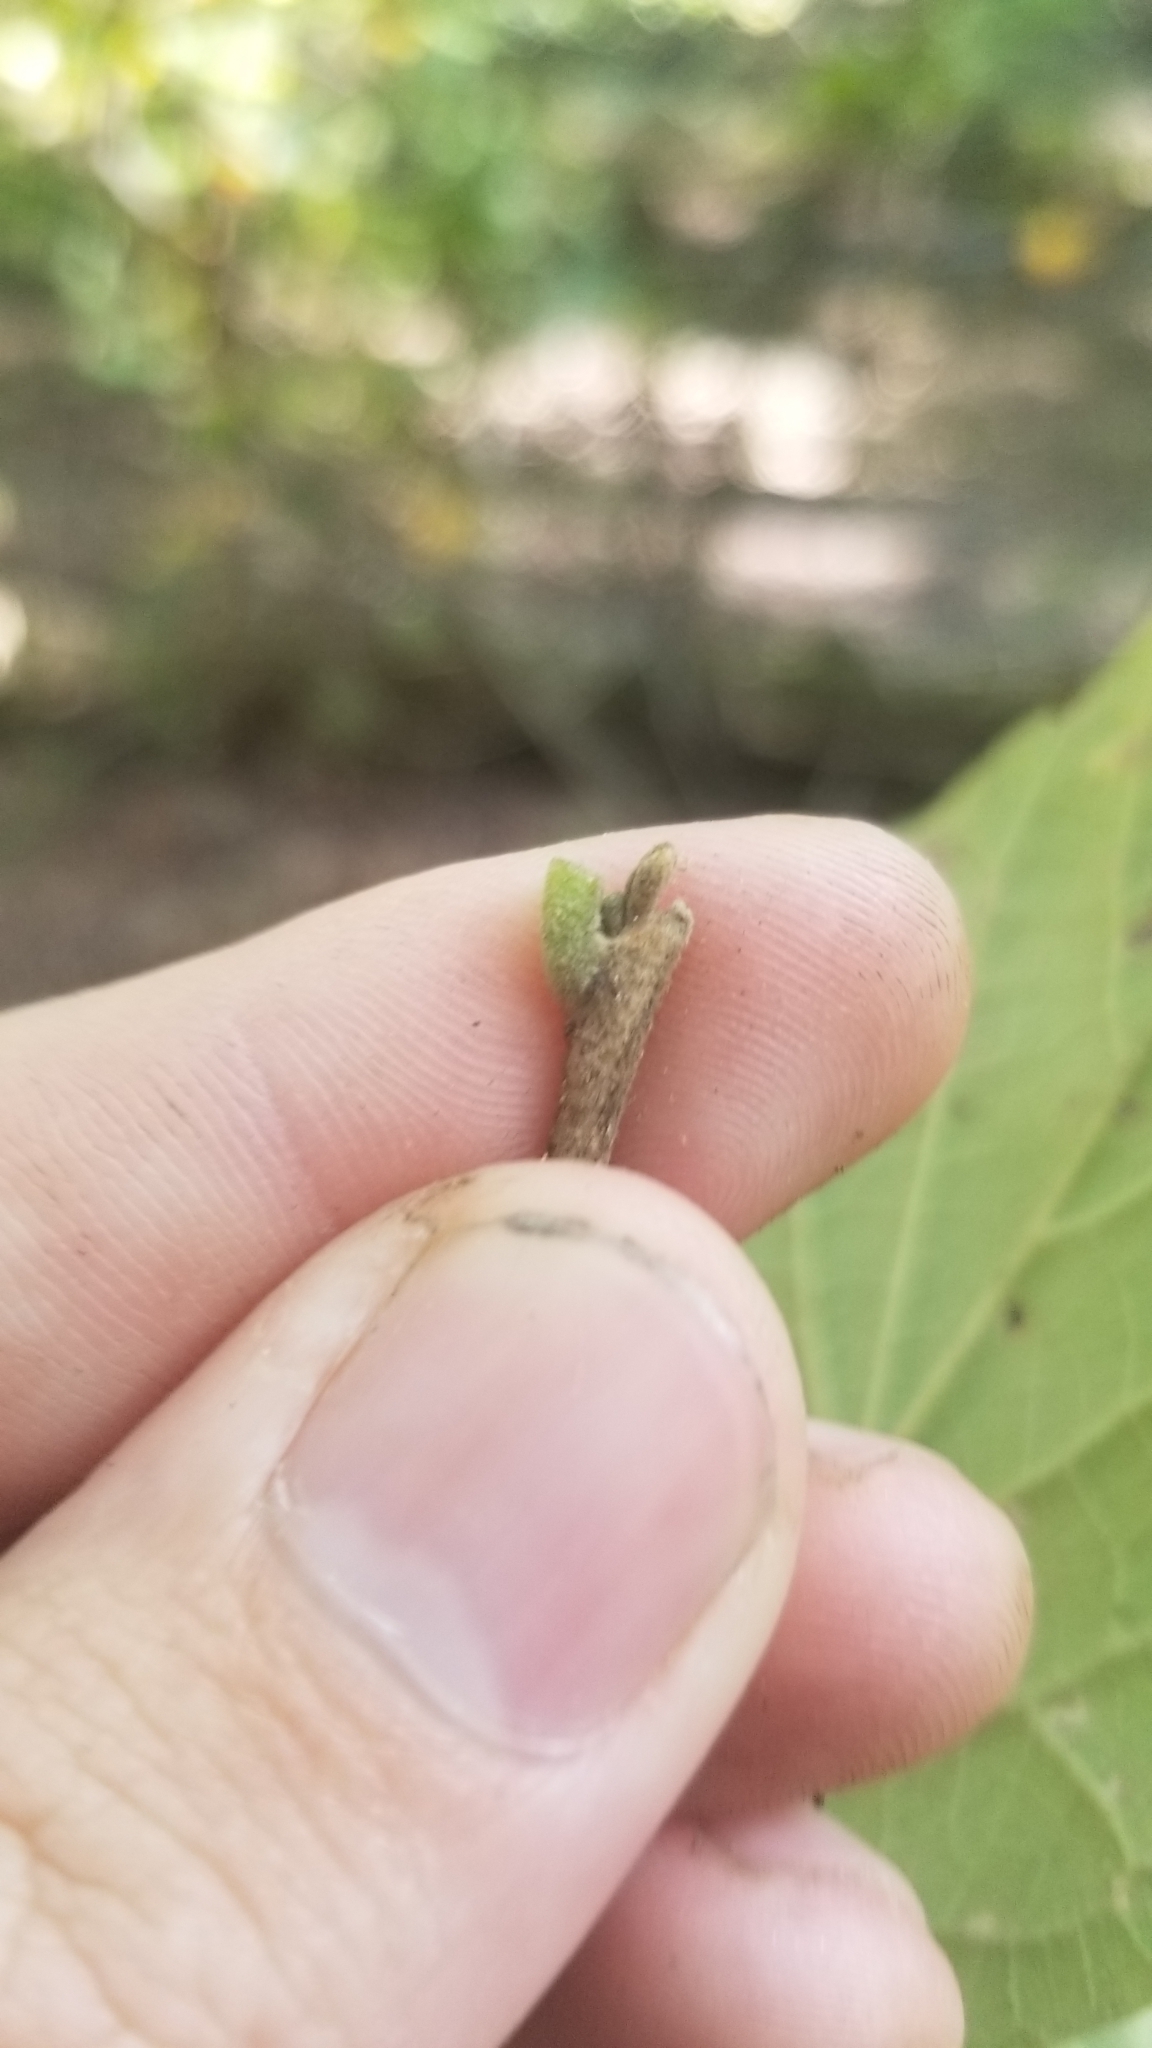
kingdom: Plantae
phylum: Tracheophyta
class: Magnoliopsida
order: Ericales
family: Styracaceae
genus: Styrax
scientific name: Styrax grandifolius
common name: Big-leaf snowbell
